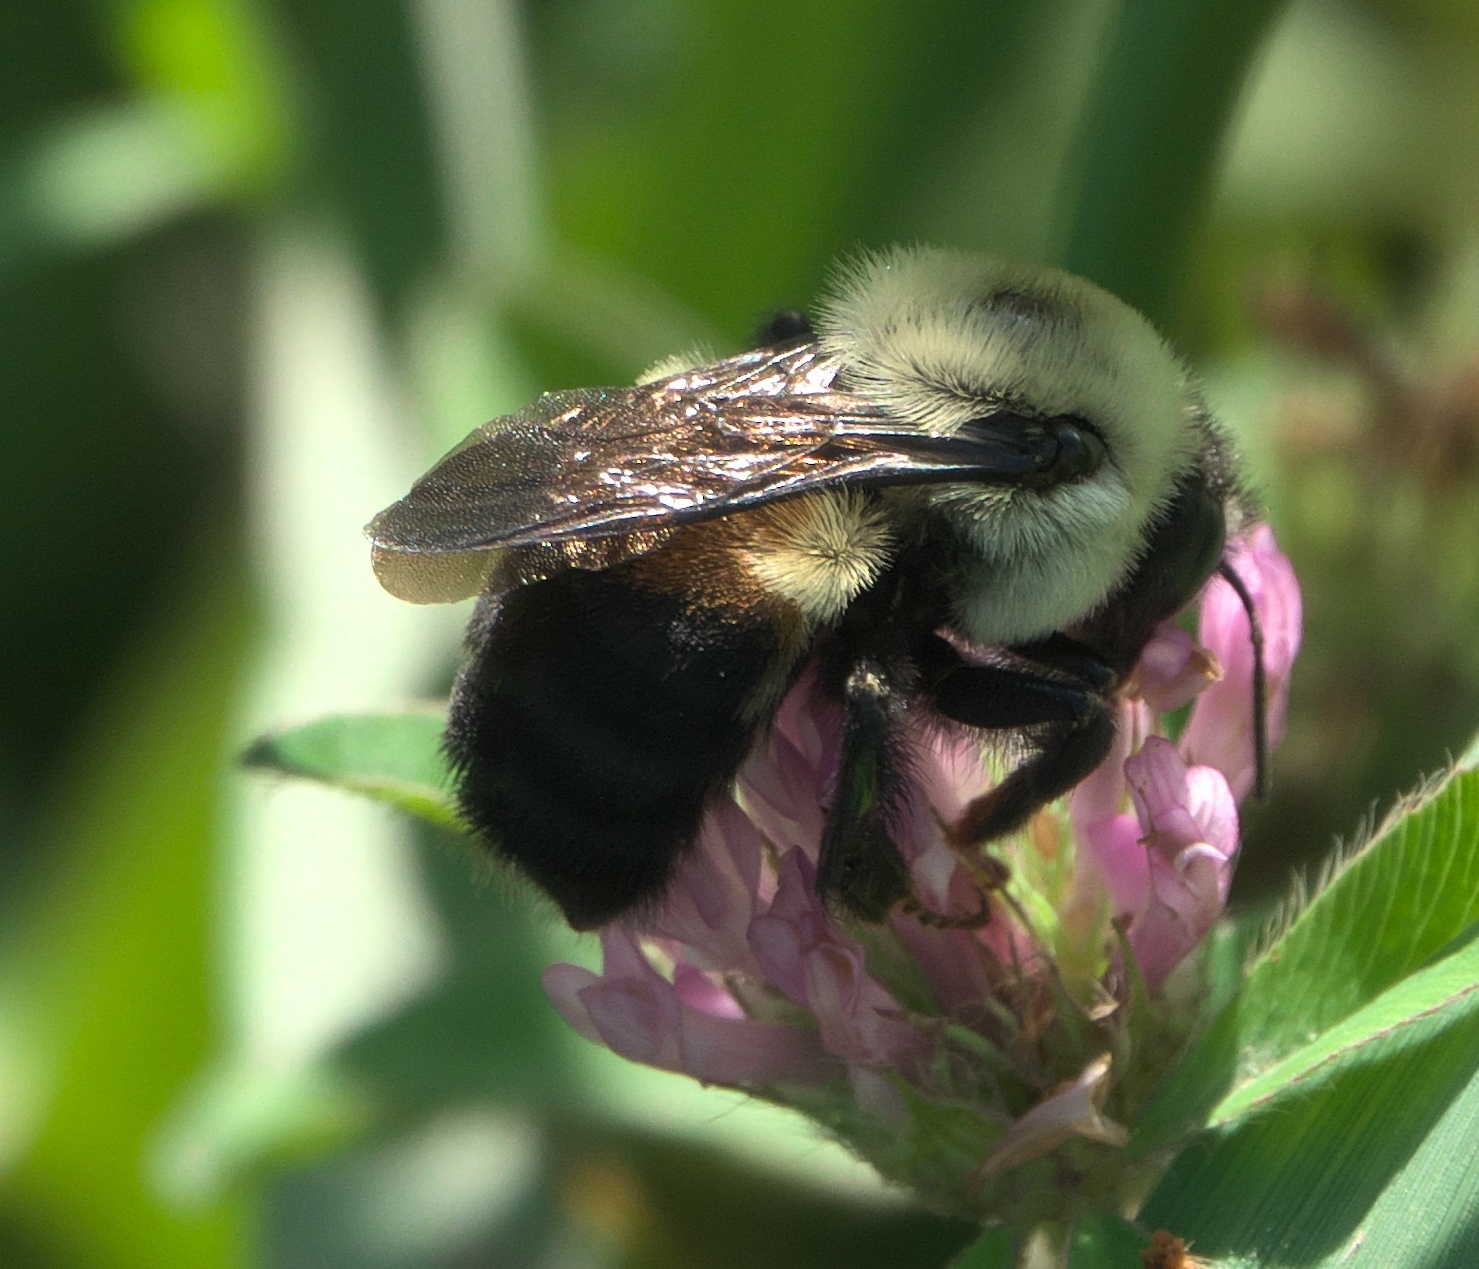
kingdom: Animalia
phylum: Arthropoda
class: Insecta
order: Hymenoptera
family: Apidae
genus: Bombus
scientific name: Bombus griseocollis
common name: Brown-belted bumble bee
